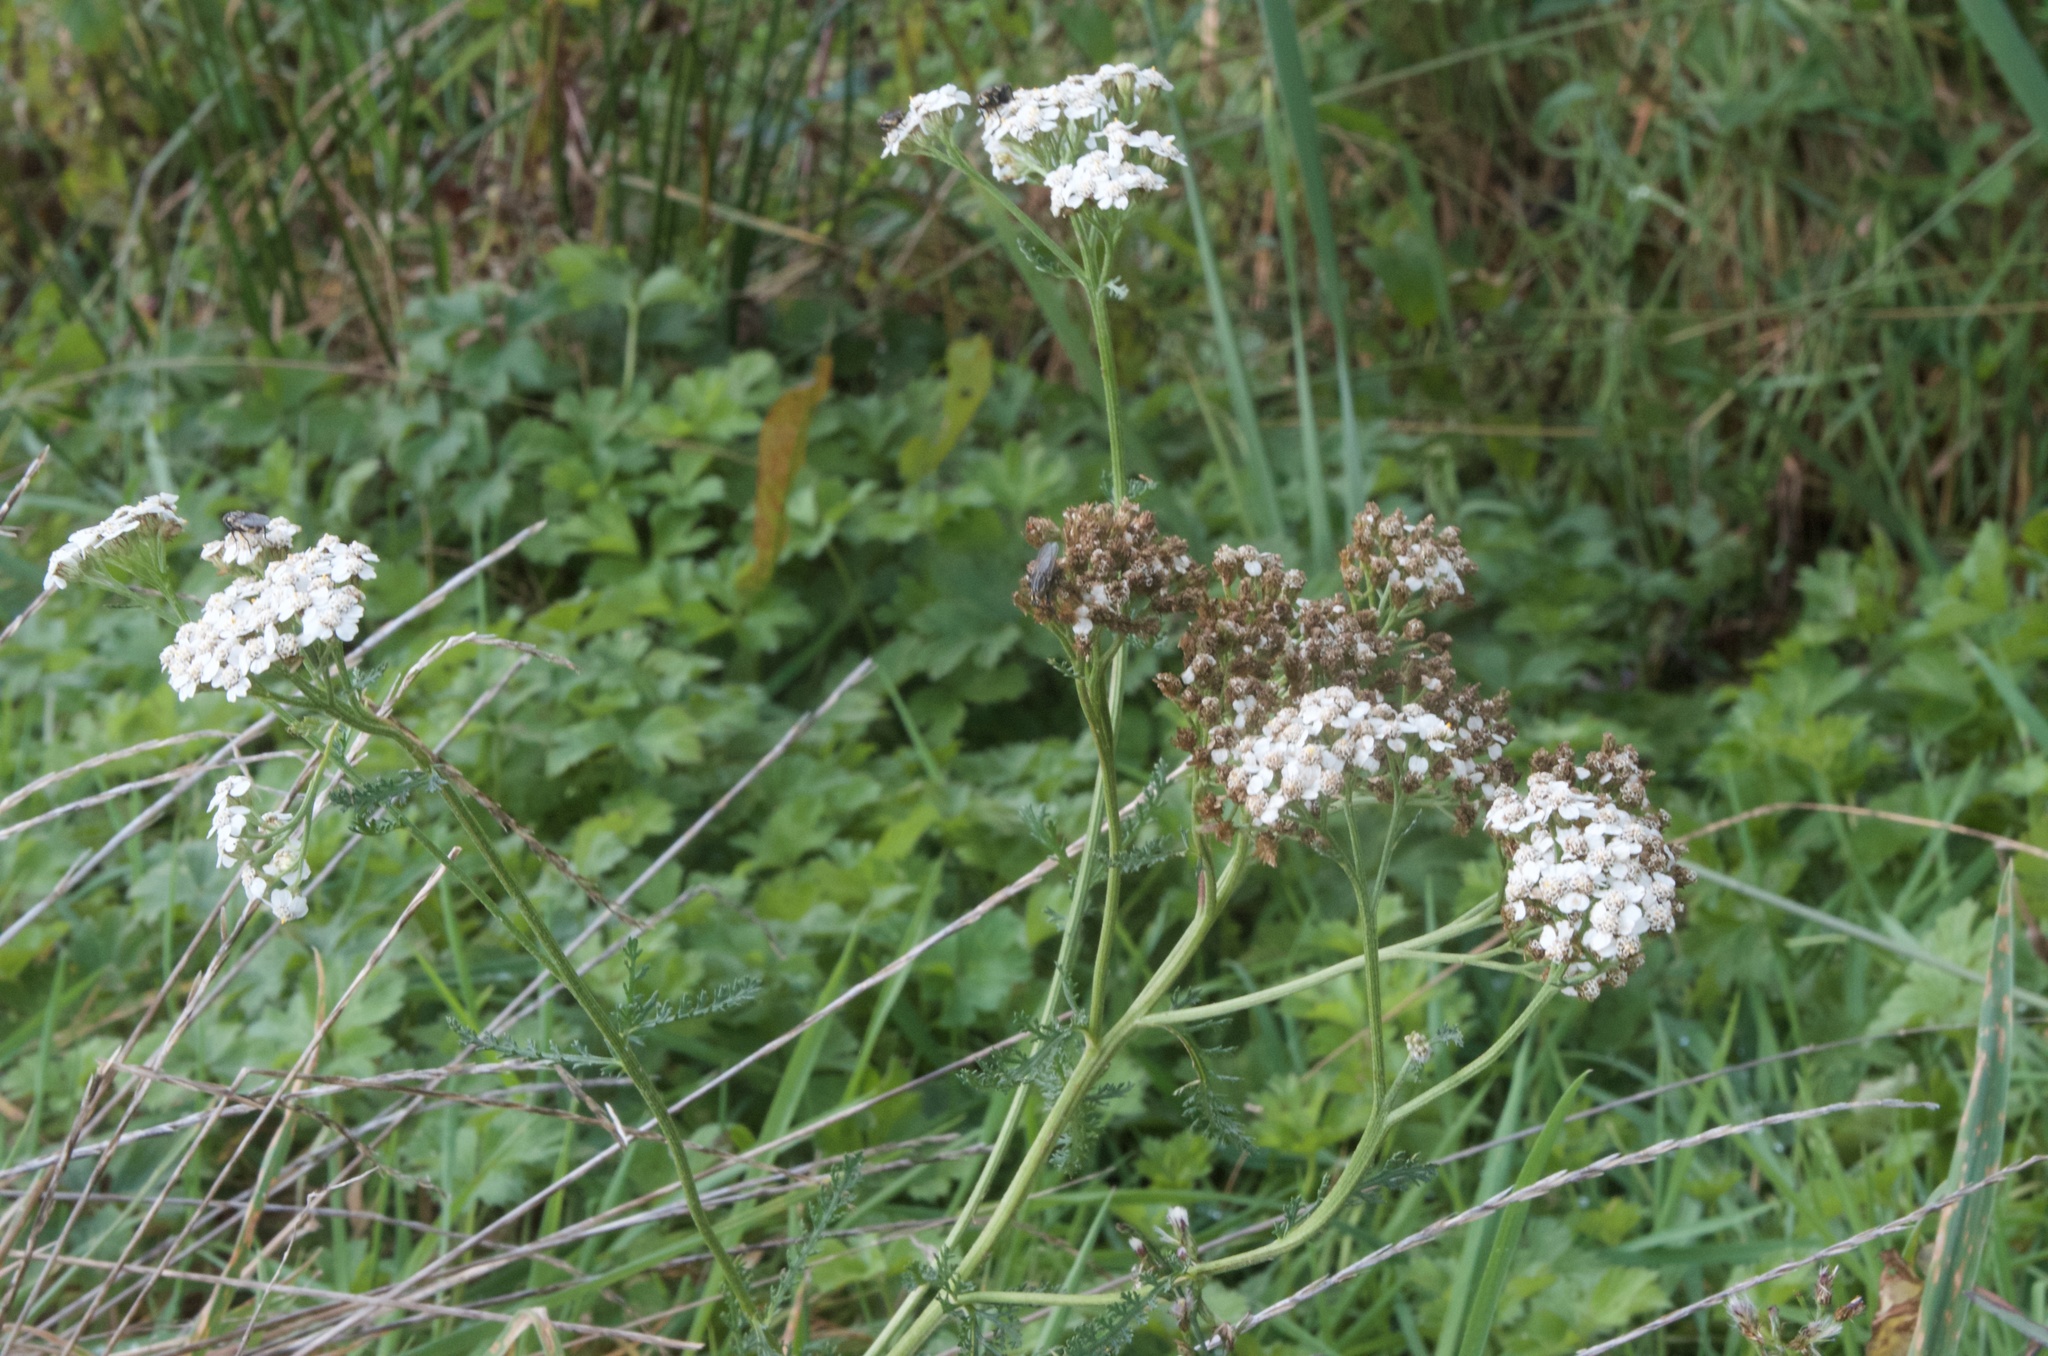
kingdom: Plantae
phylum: Tracheophyta
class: Magnoliopsida
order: Asterales
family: Asteraceae
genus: Achillea
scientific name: Achillea millefolium
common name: Yarrow
